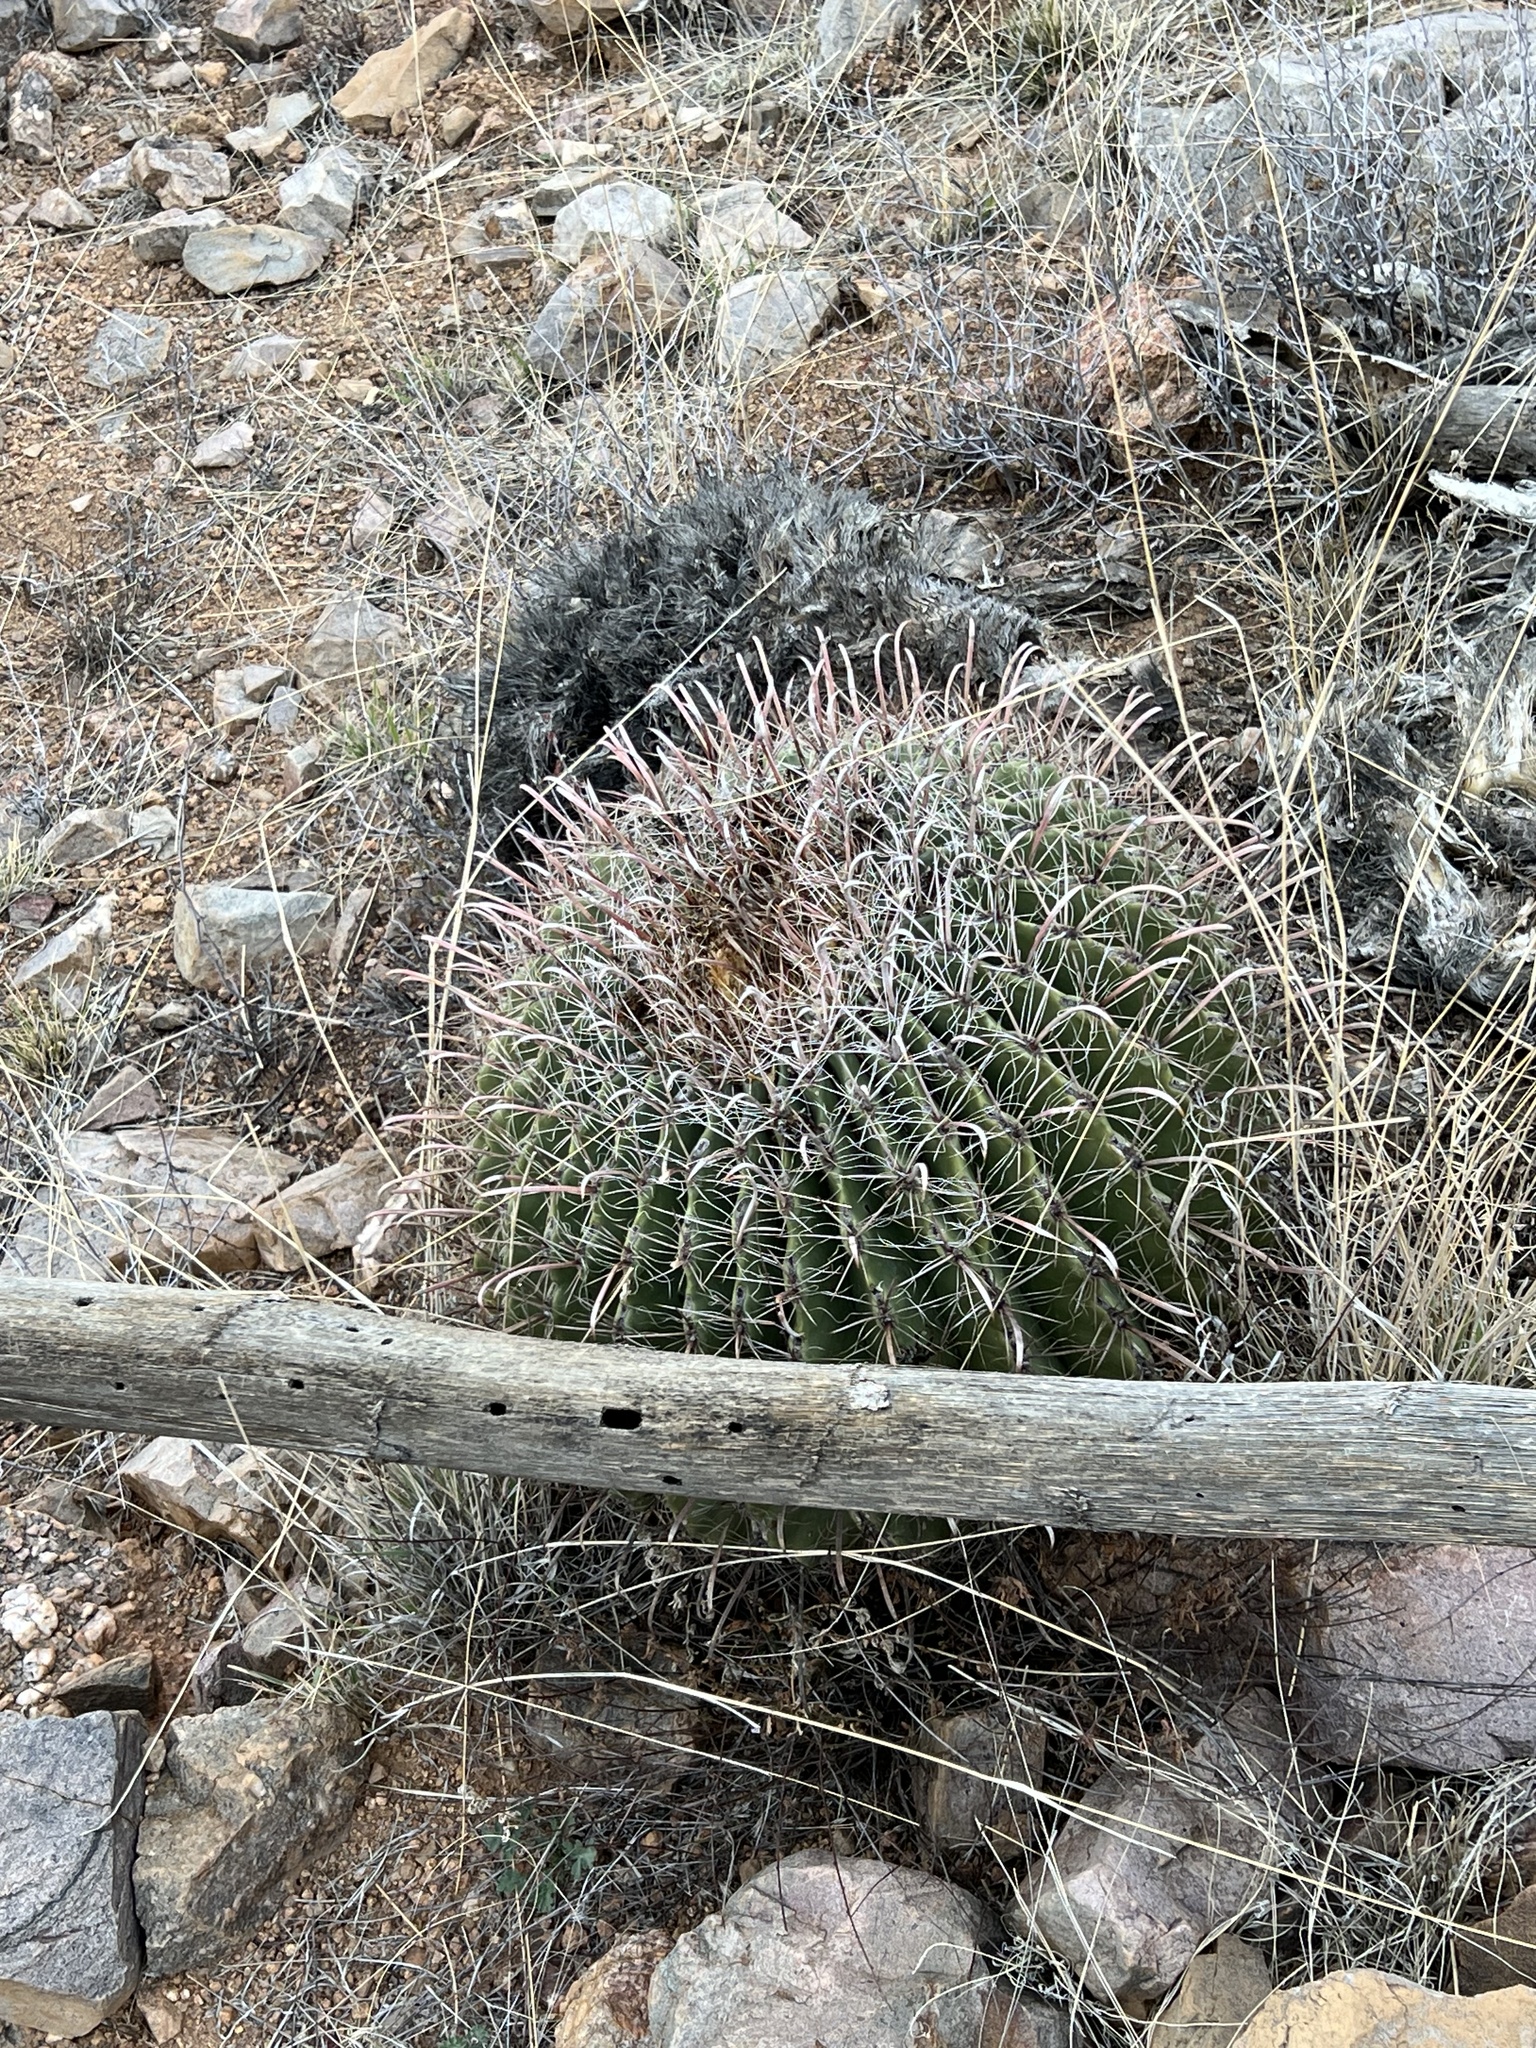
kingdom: Plantae
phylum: Tracheophyta
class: Magnoliopsida
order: Caryophyllales
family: Cactaceae
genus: Ferocactus
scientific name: Ferocactus wislizeni
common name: Candy barrel cactus
